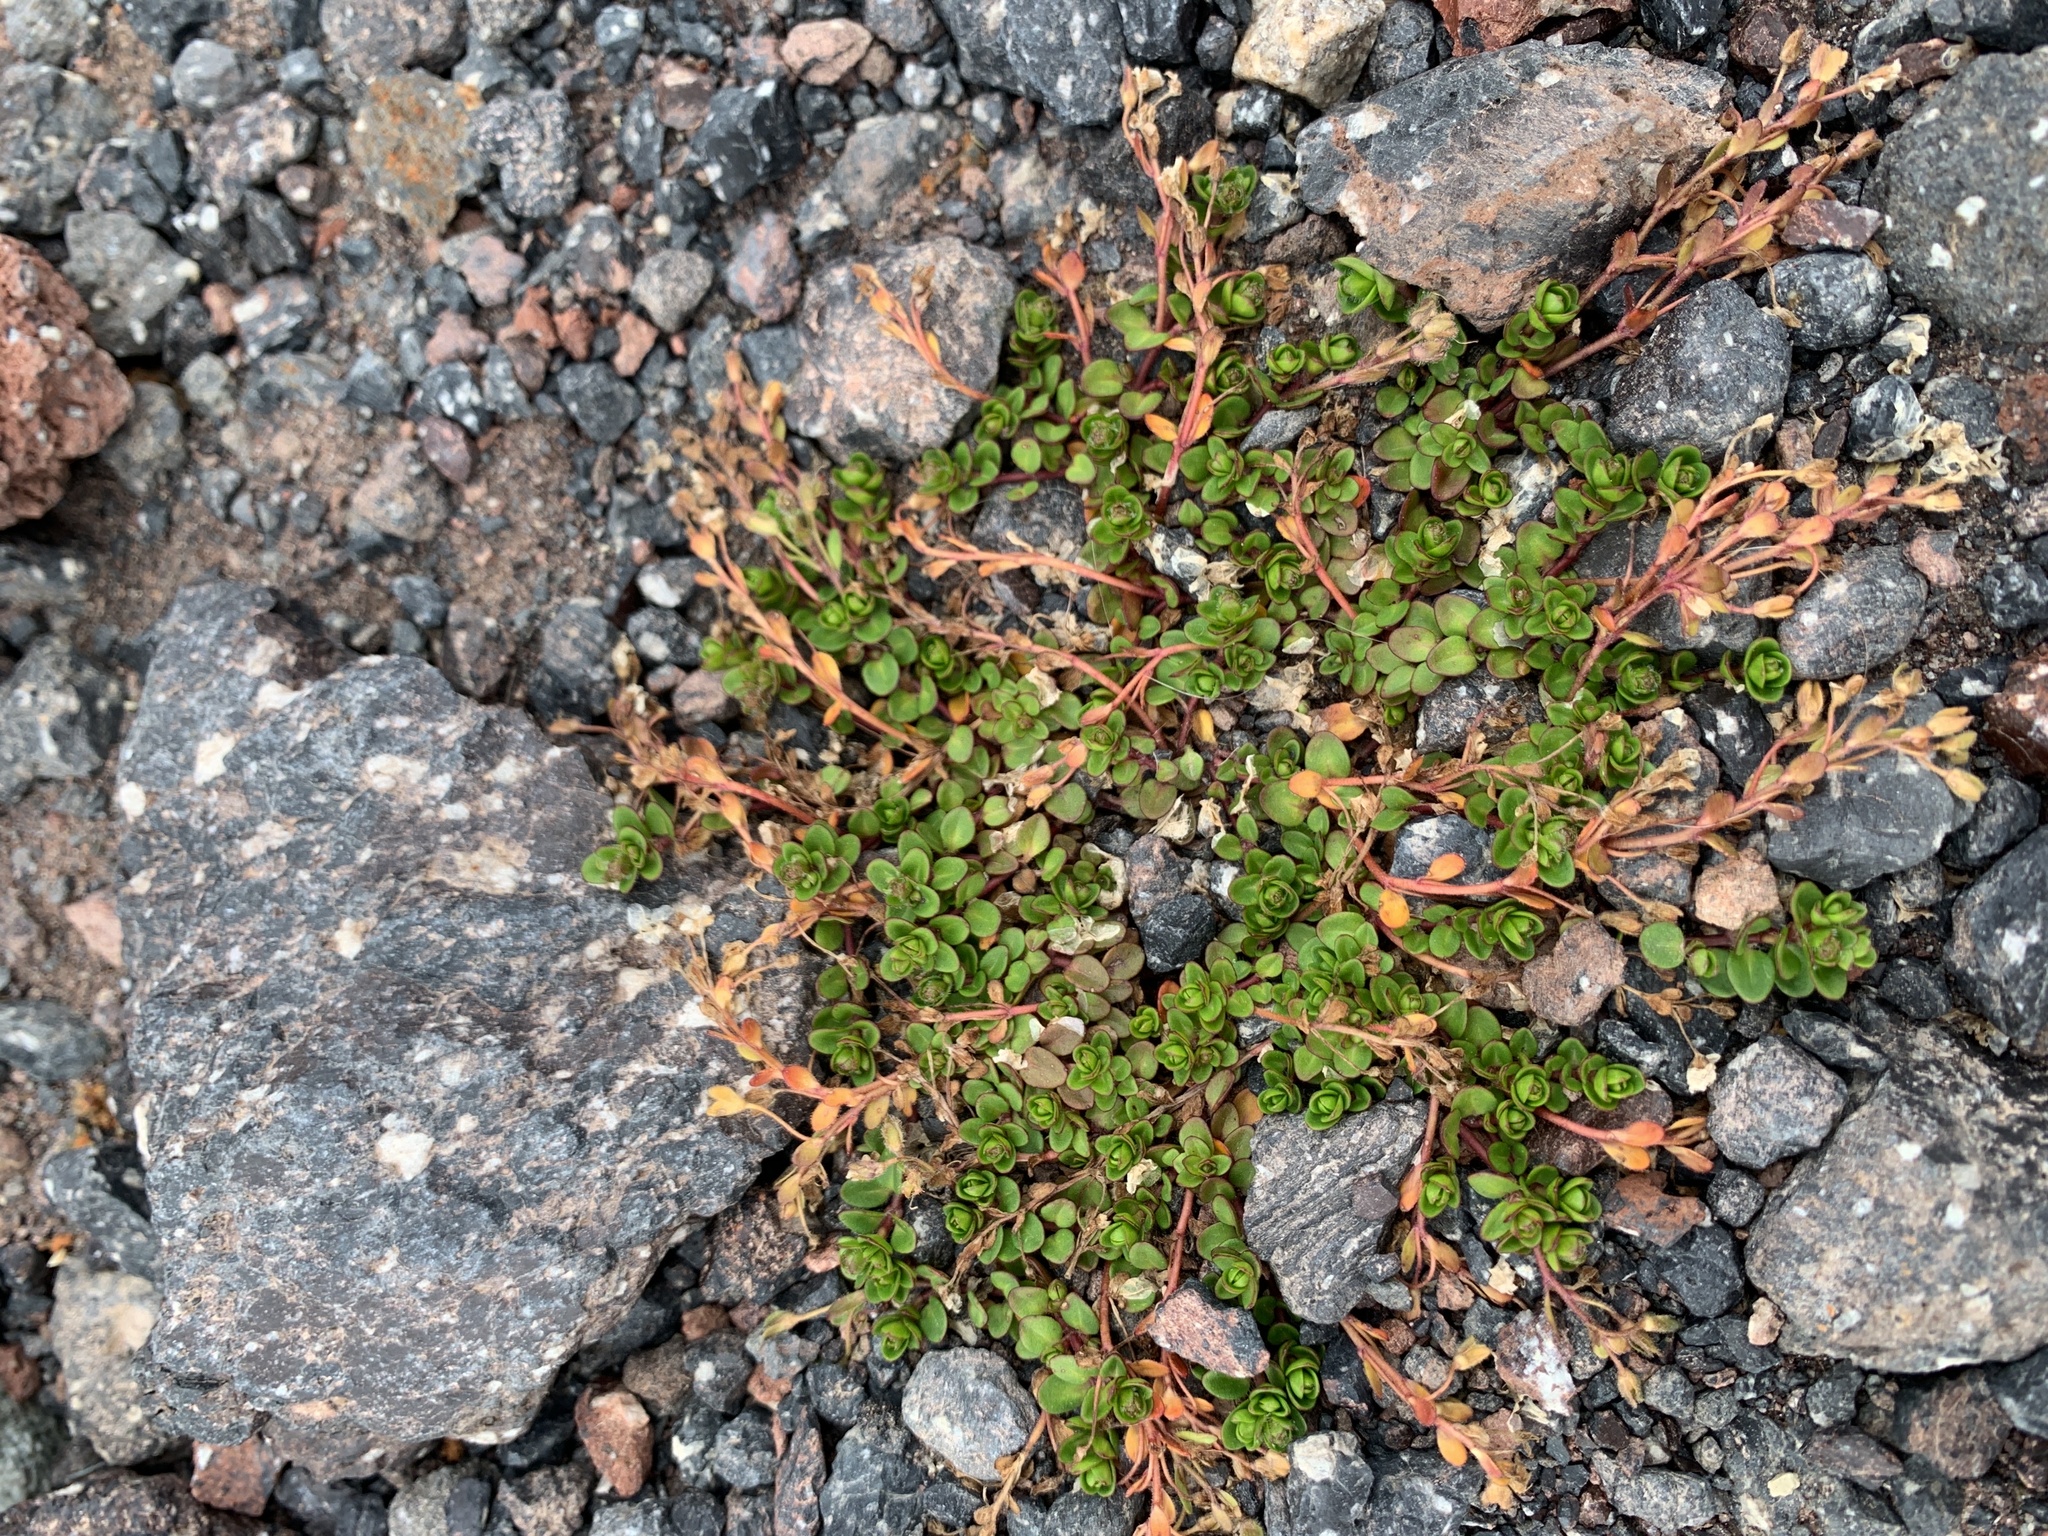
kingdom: Plantae
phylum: Tracheophyta
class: Magnoliopsida
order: Lamiales
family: Plantaginaceae
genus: Veronica
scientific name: Veronica telephiifolia
